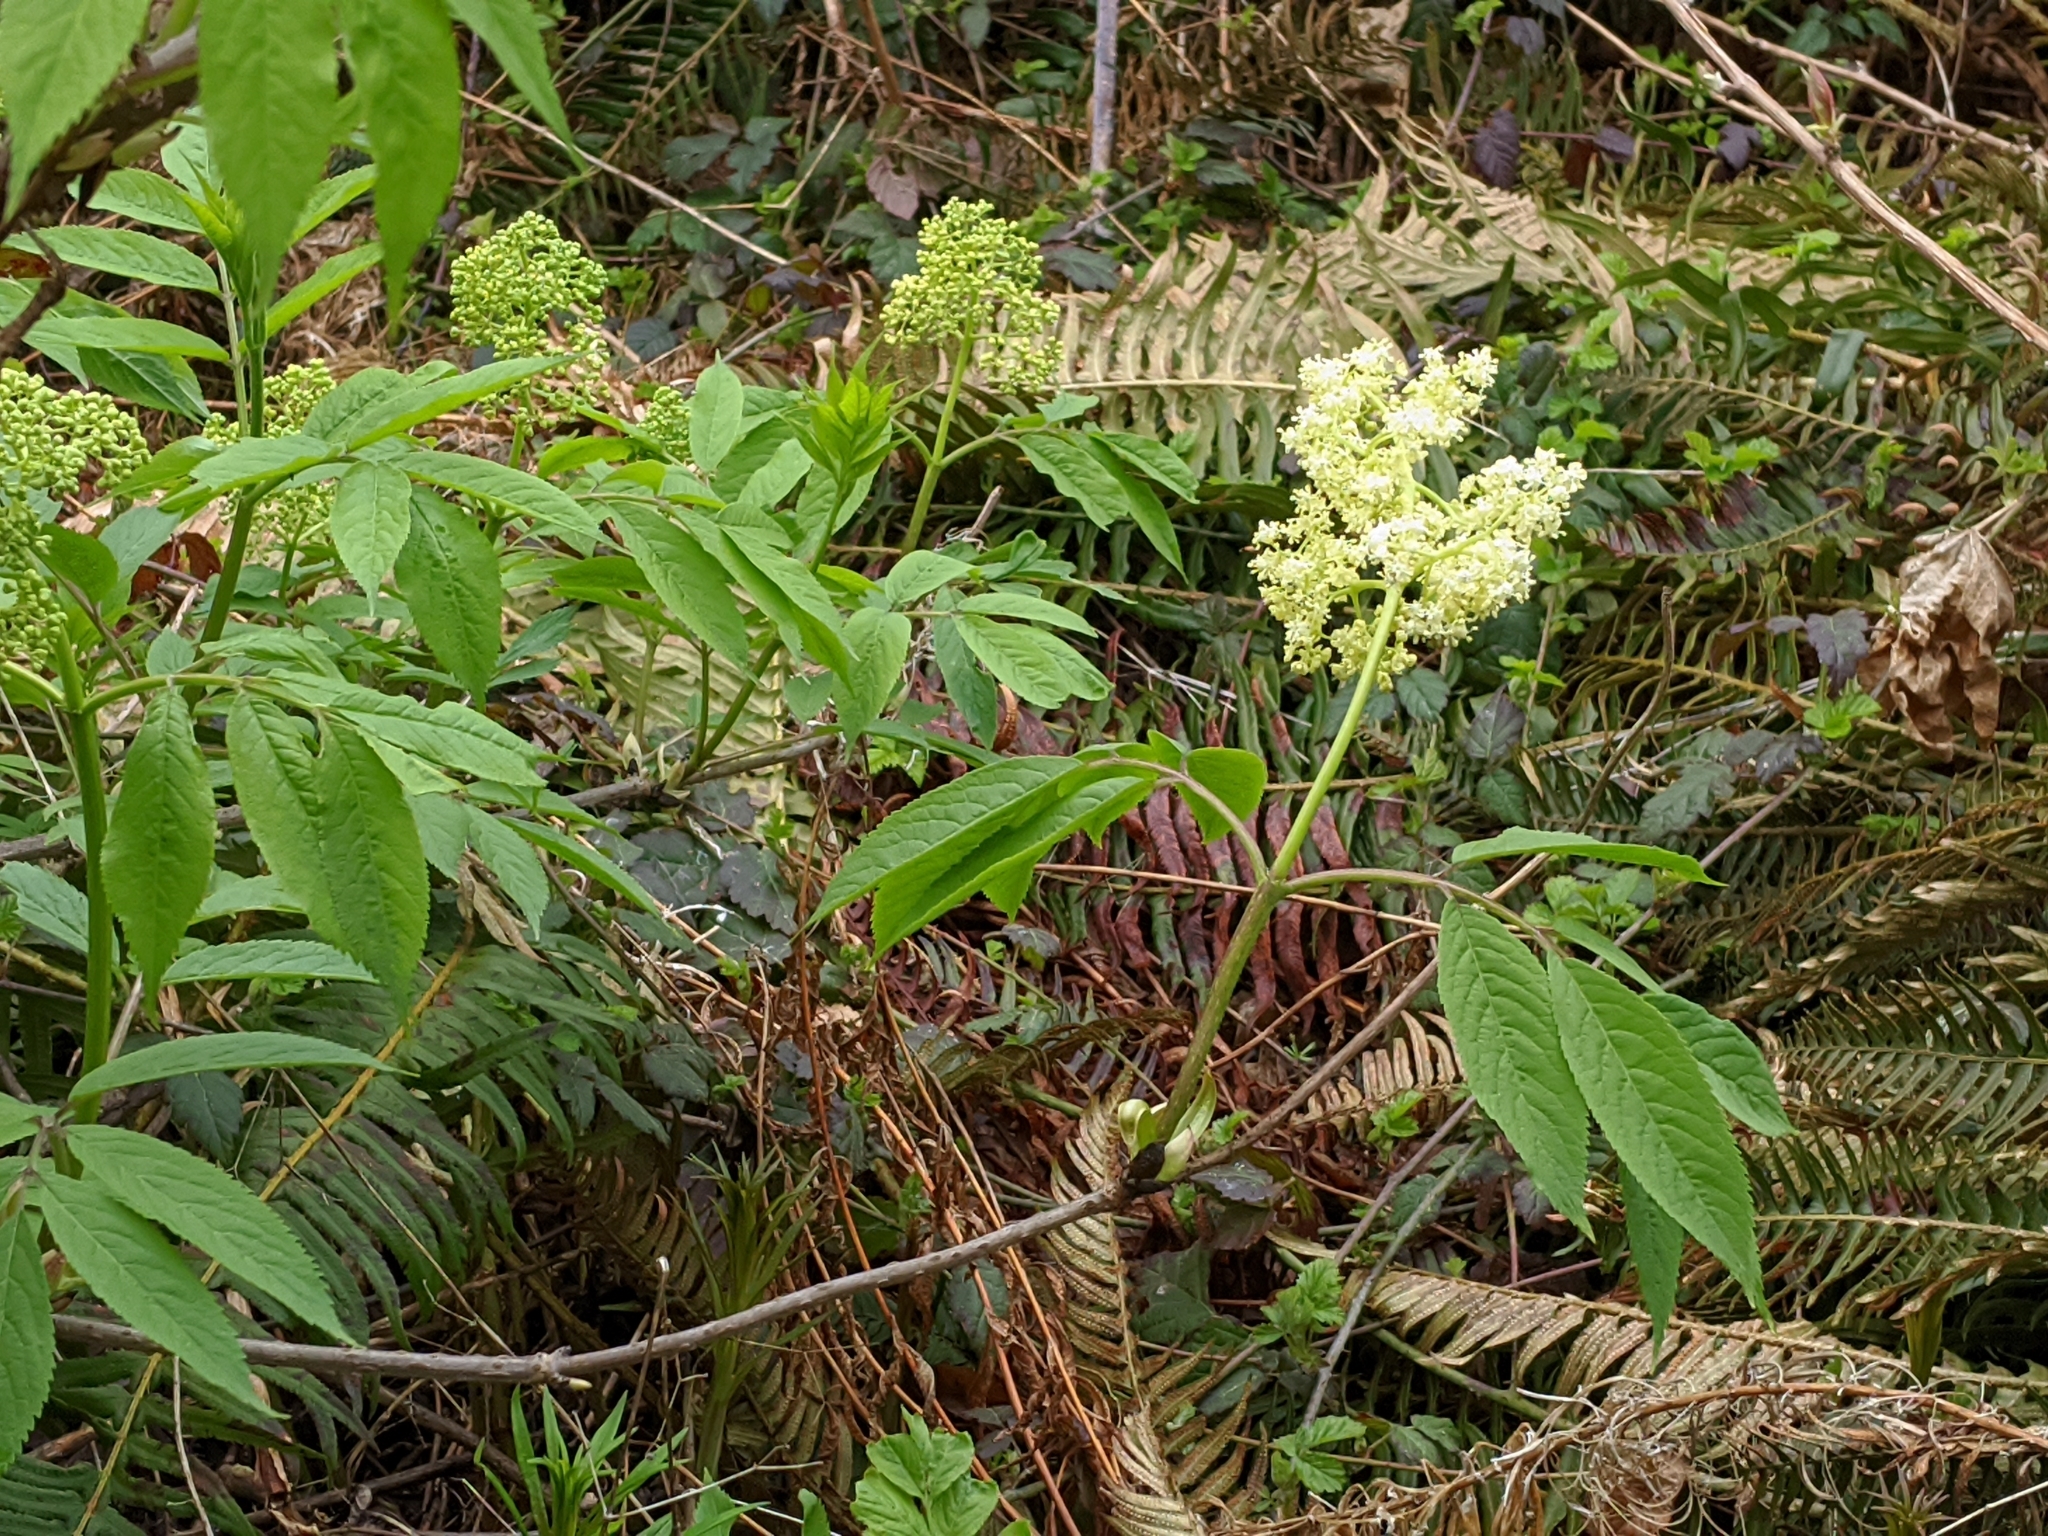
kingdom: Plantae
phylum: Tracheophyta
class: Magnoliopsida
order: Dipsacales
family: Viburnaceae
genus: Sambucus
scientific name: Sambucus racemosa
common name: Red-berried elder
